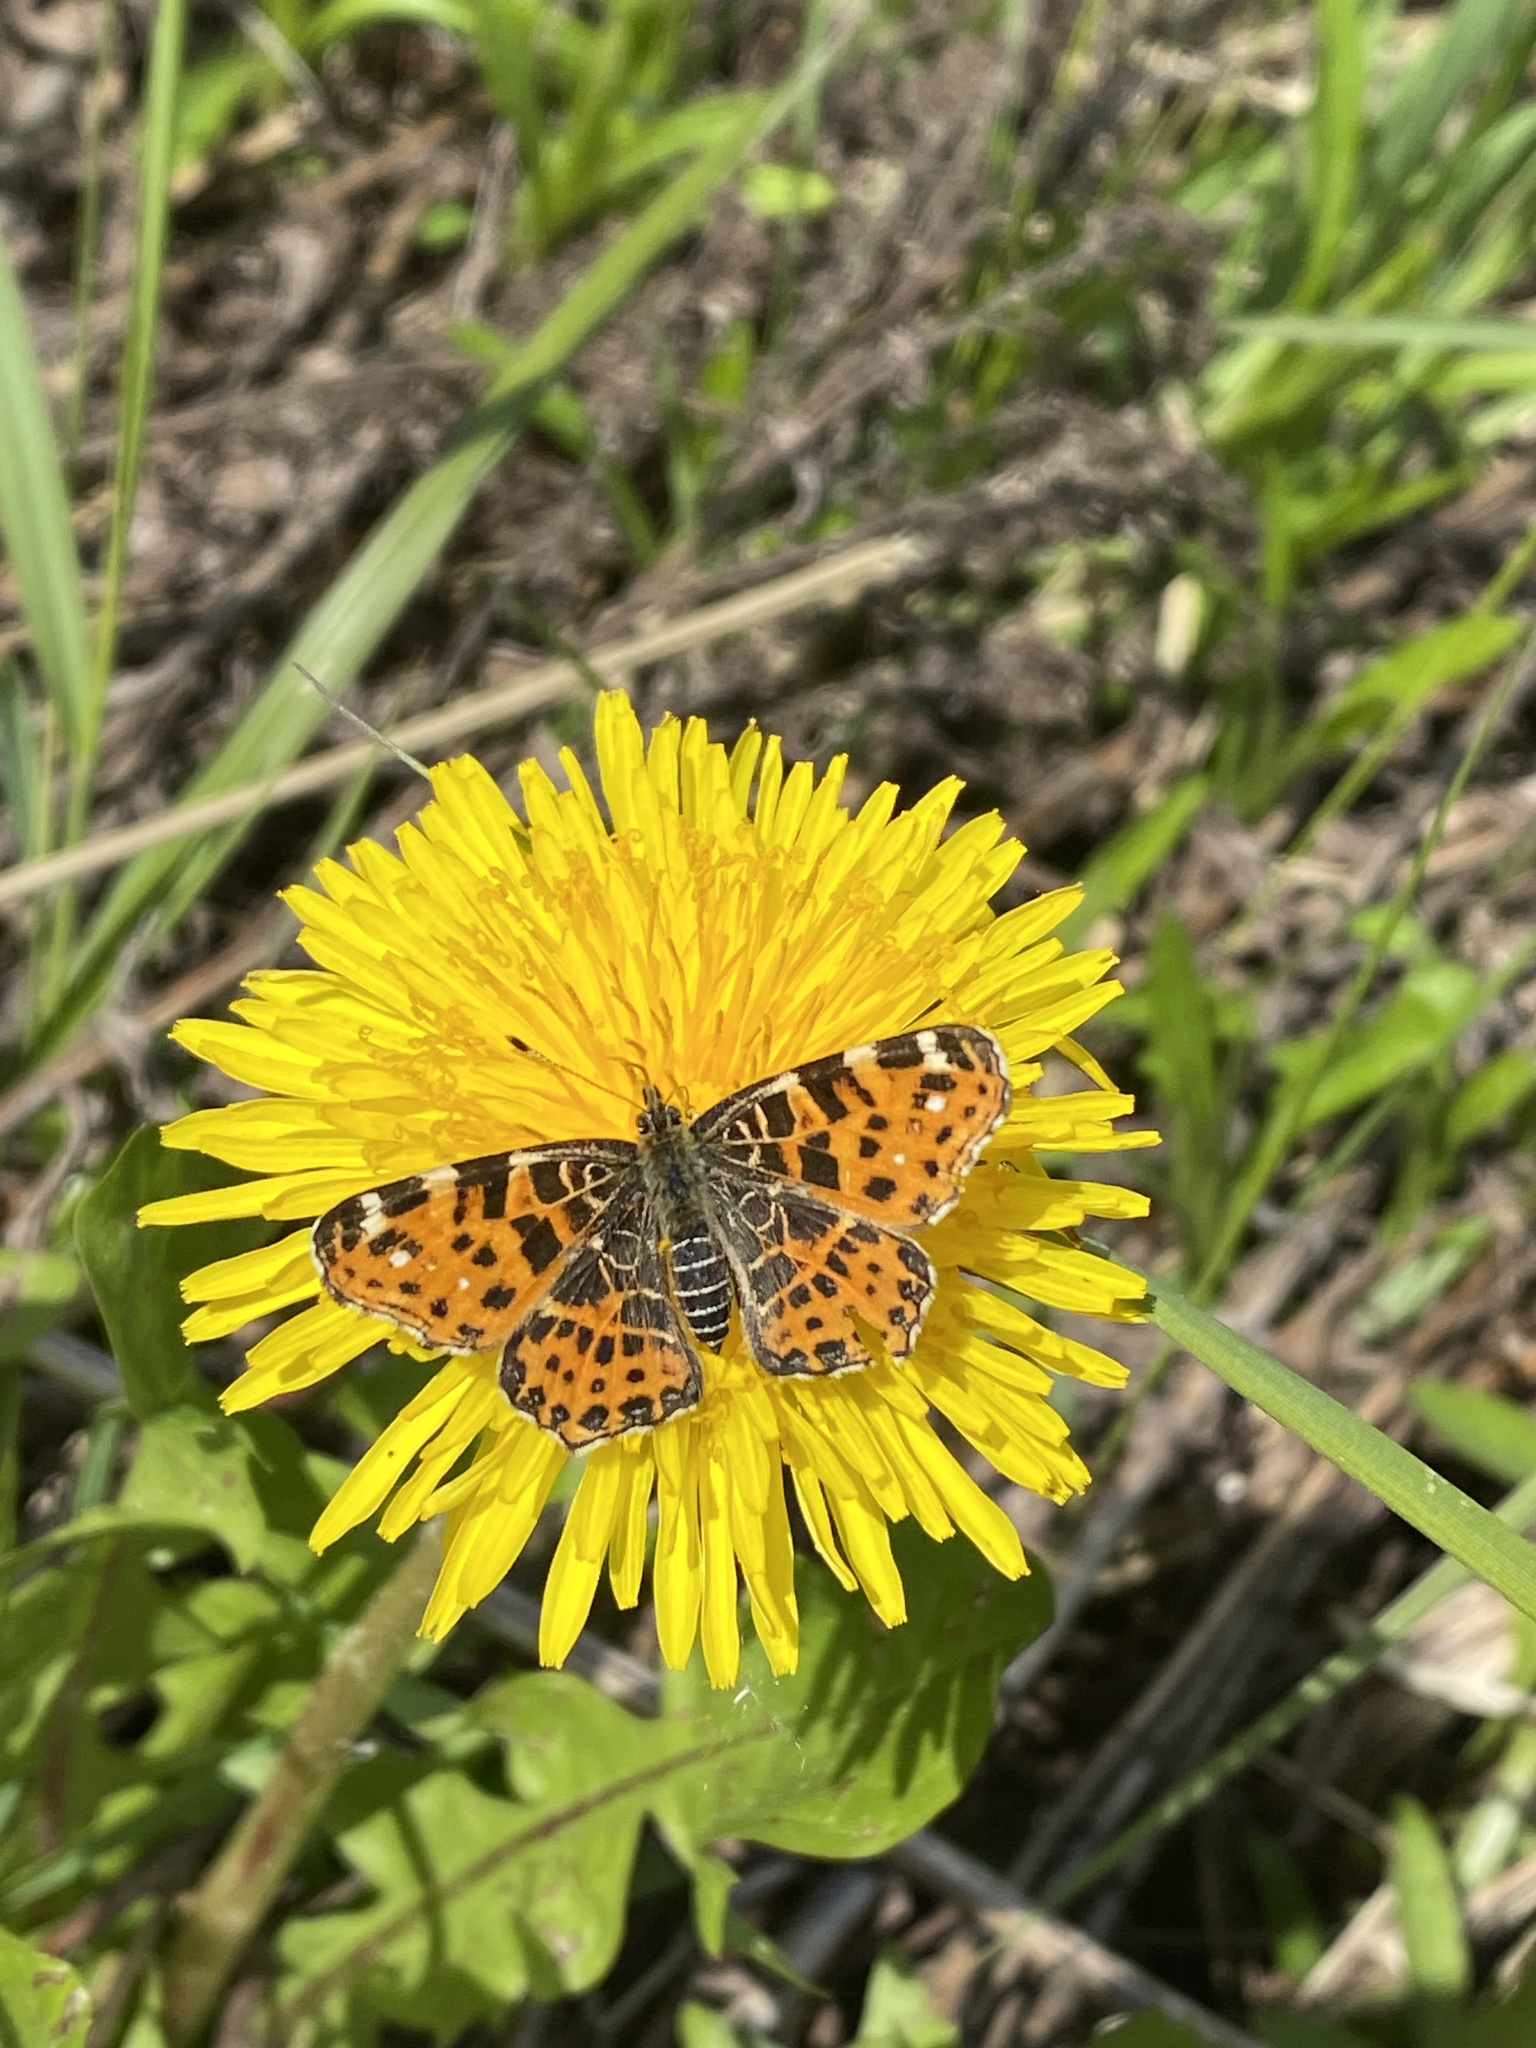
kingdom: Animalia
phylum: Arthropoda
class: Insecta
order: Lepidoptera
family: Nymphalidae
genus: Araschnia
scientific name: Araschnia levana
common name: Map butterfly
